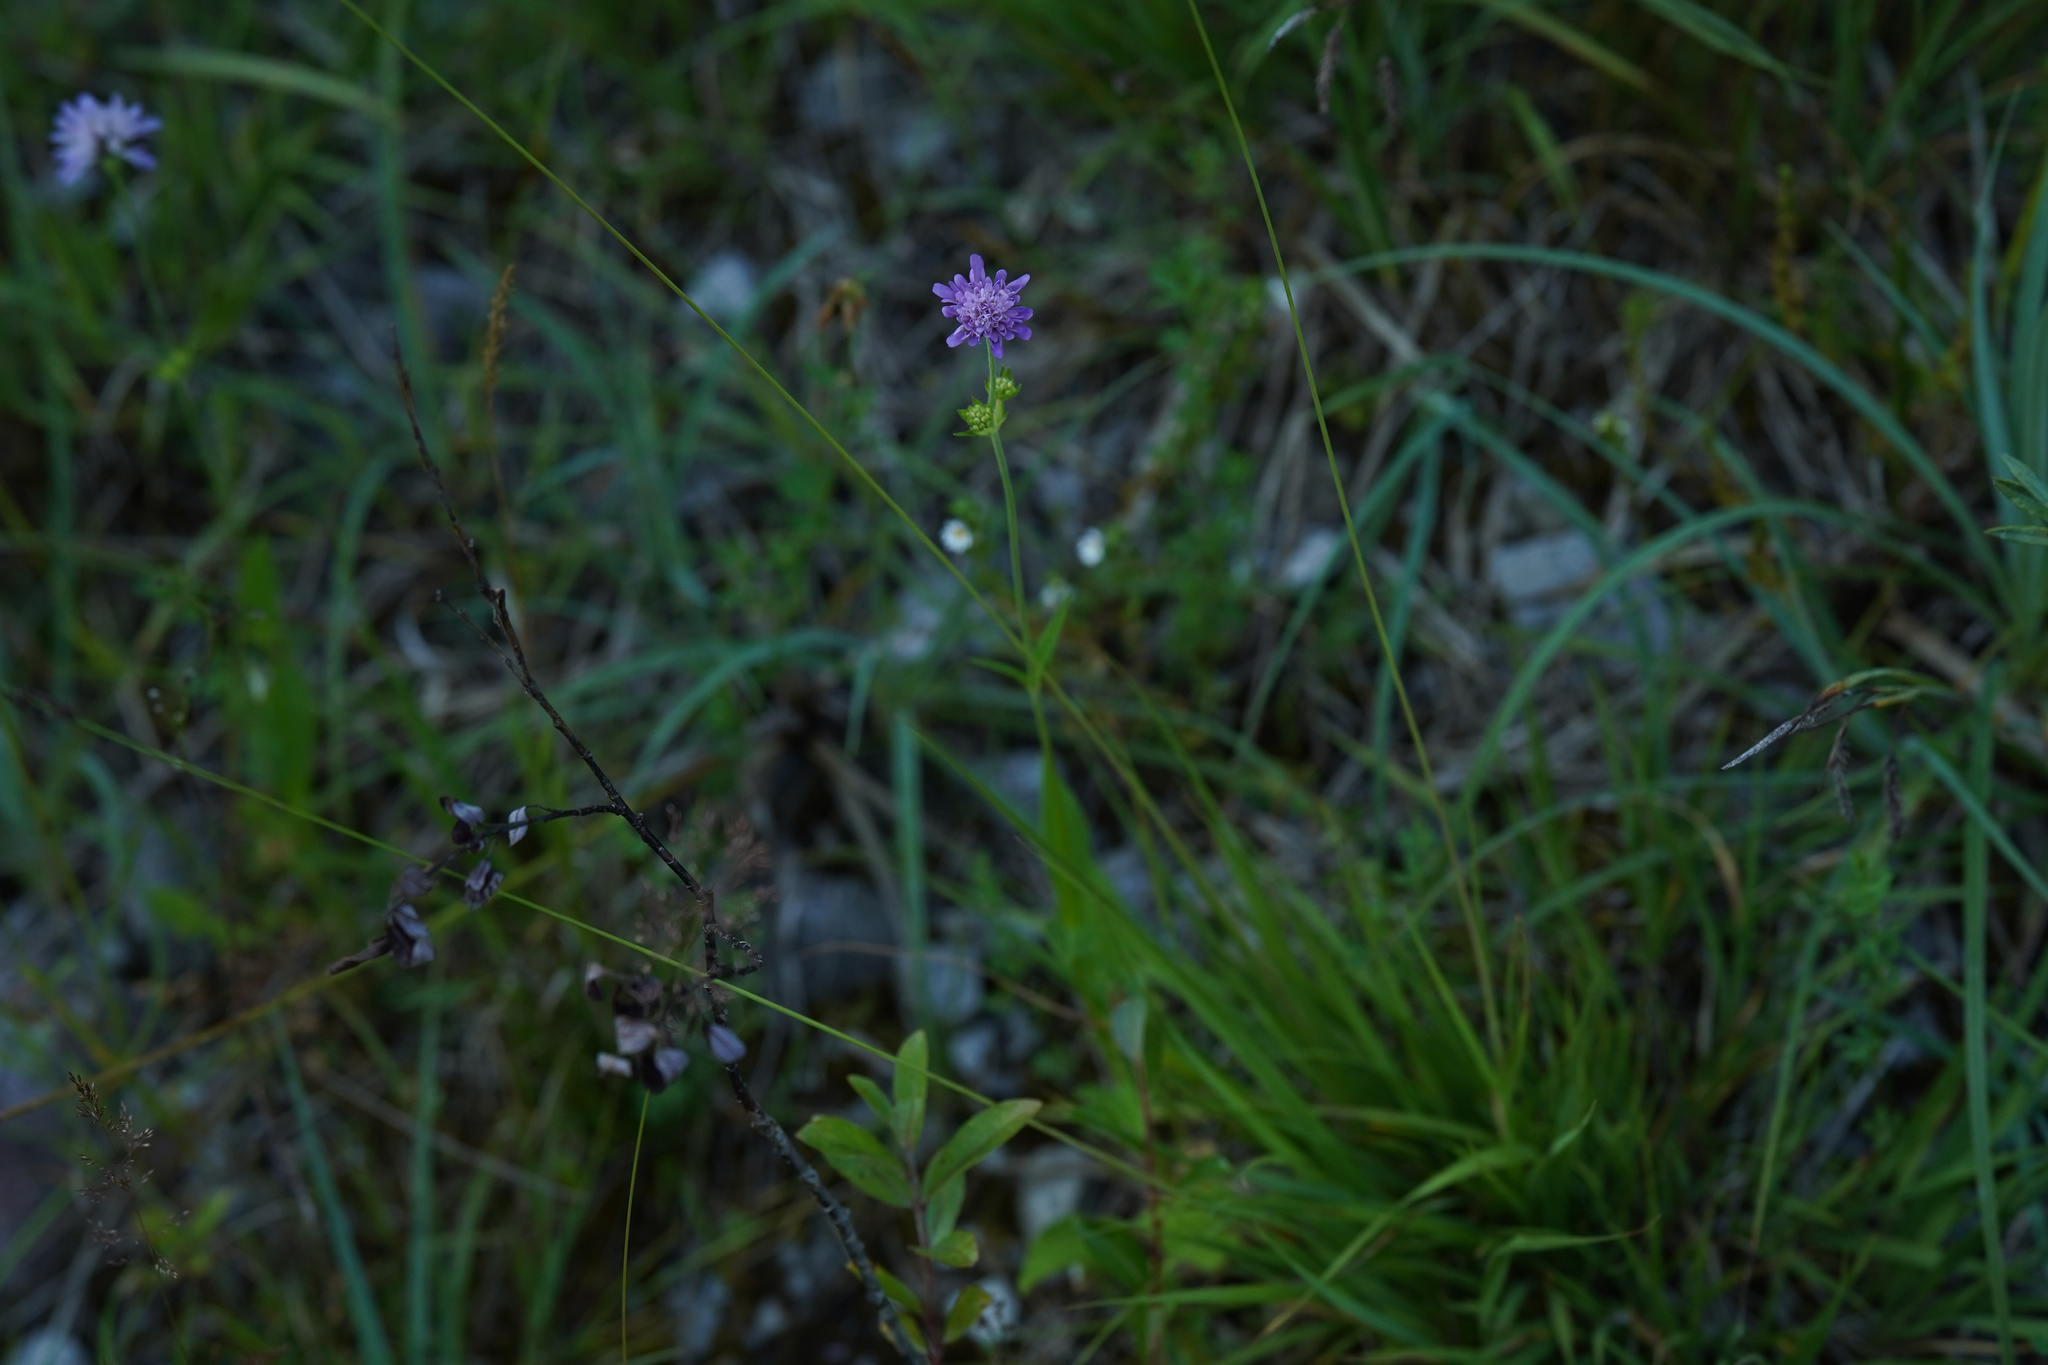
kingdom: Plantae
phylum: Tracheophyta
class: Magnoliopsida
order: Dipsacales
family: Caprifoliaceae
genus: Knautia
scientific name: Knautia dipsacifolia
